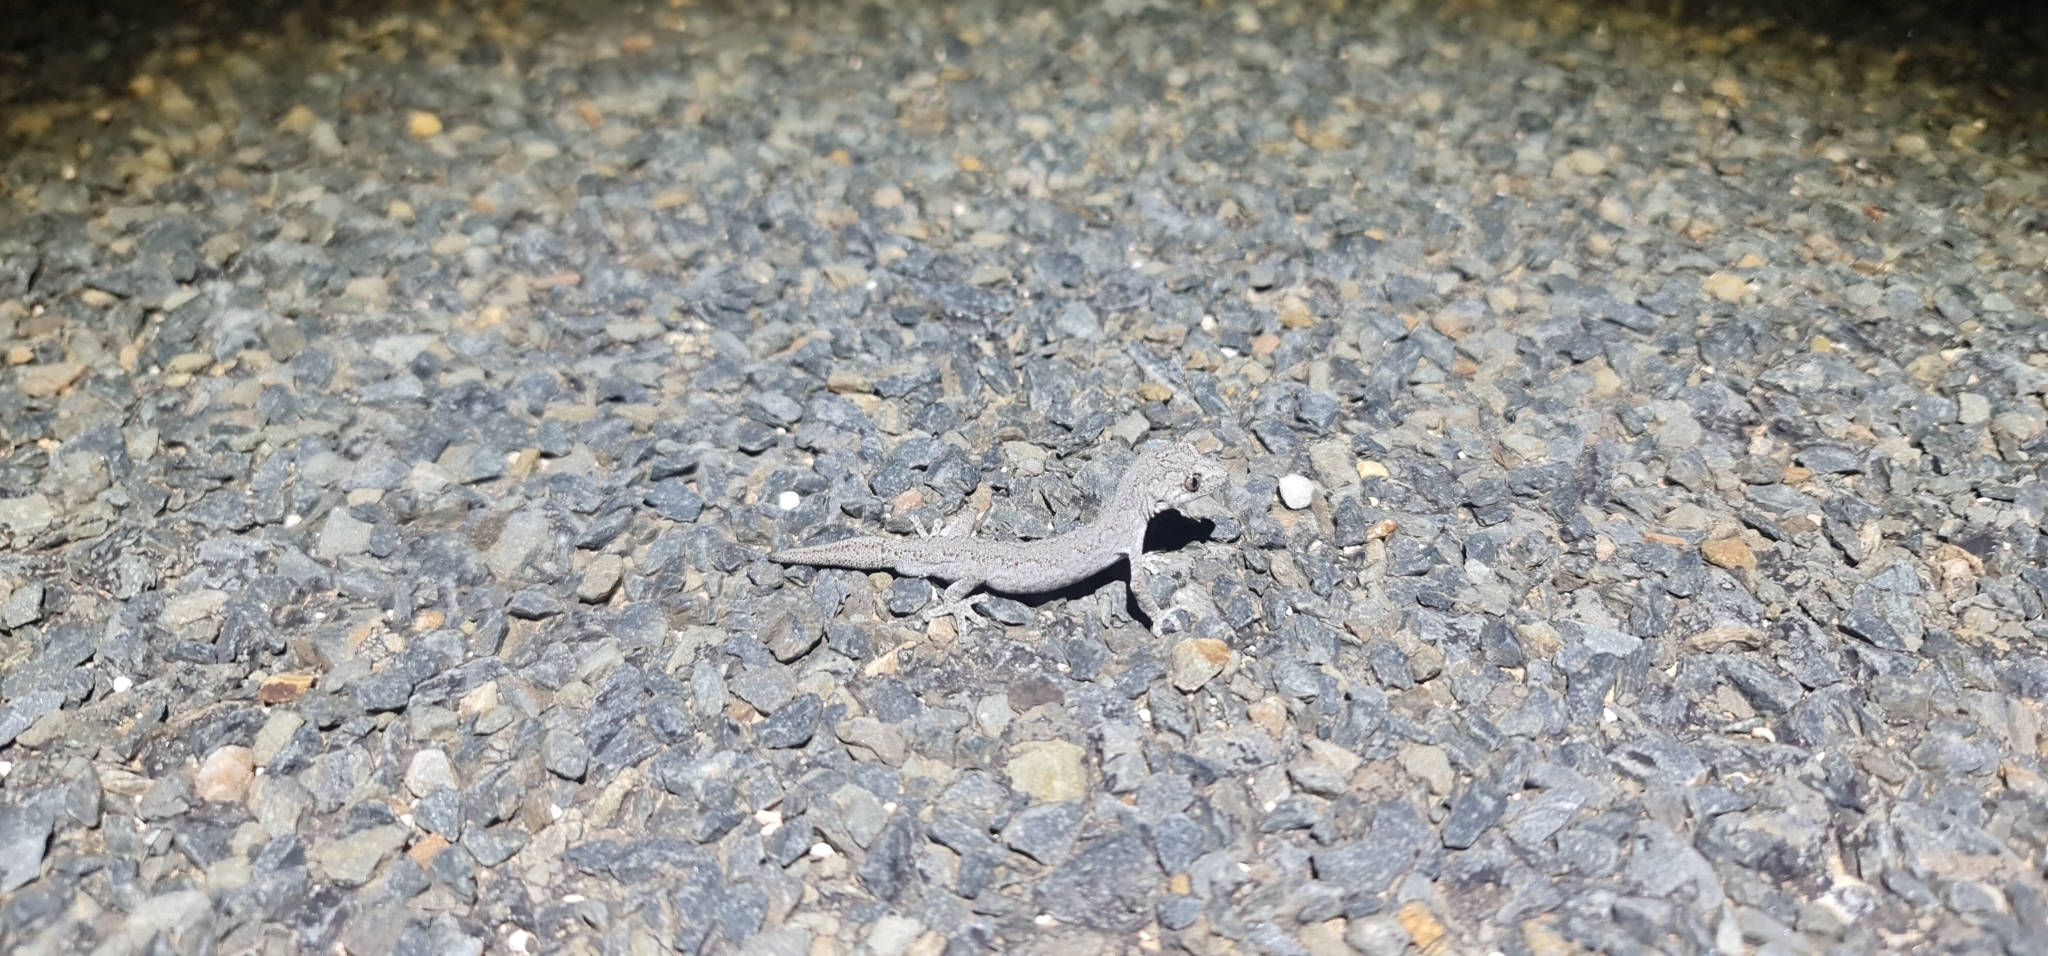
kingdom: Animalia
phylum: Chordata
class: Squamata
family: Diplodactylidae
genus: Strophurus
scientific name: Strophurus intermedius
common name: Eastern spiny-tailed gecko
